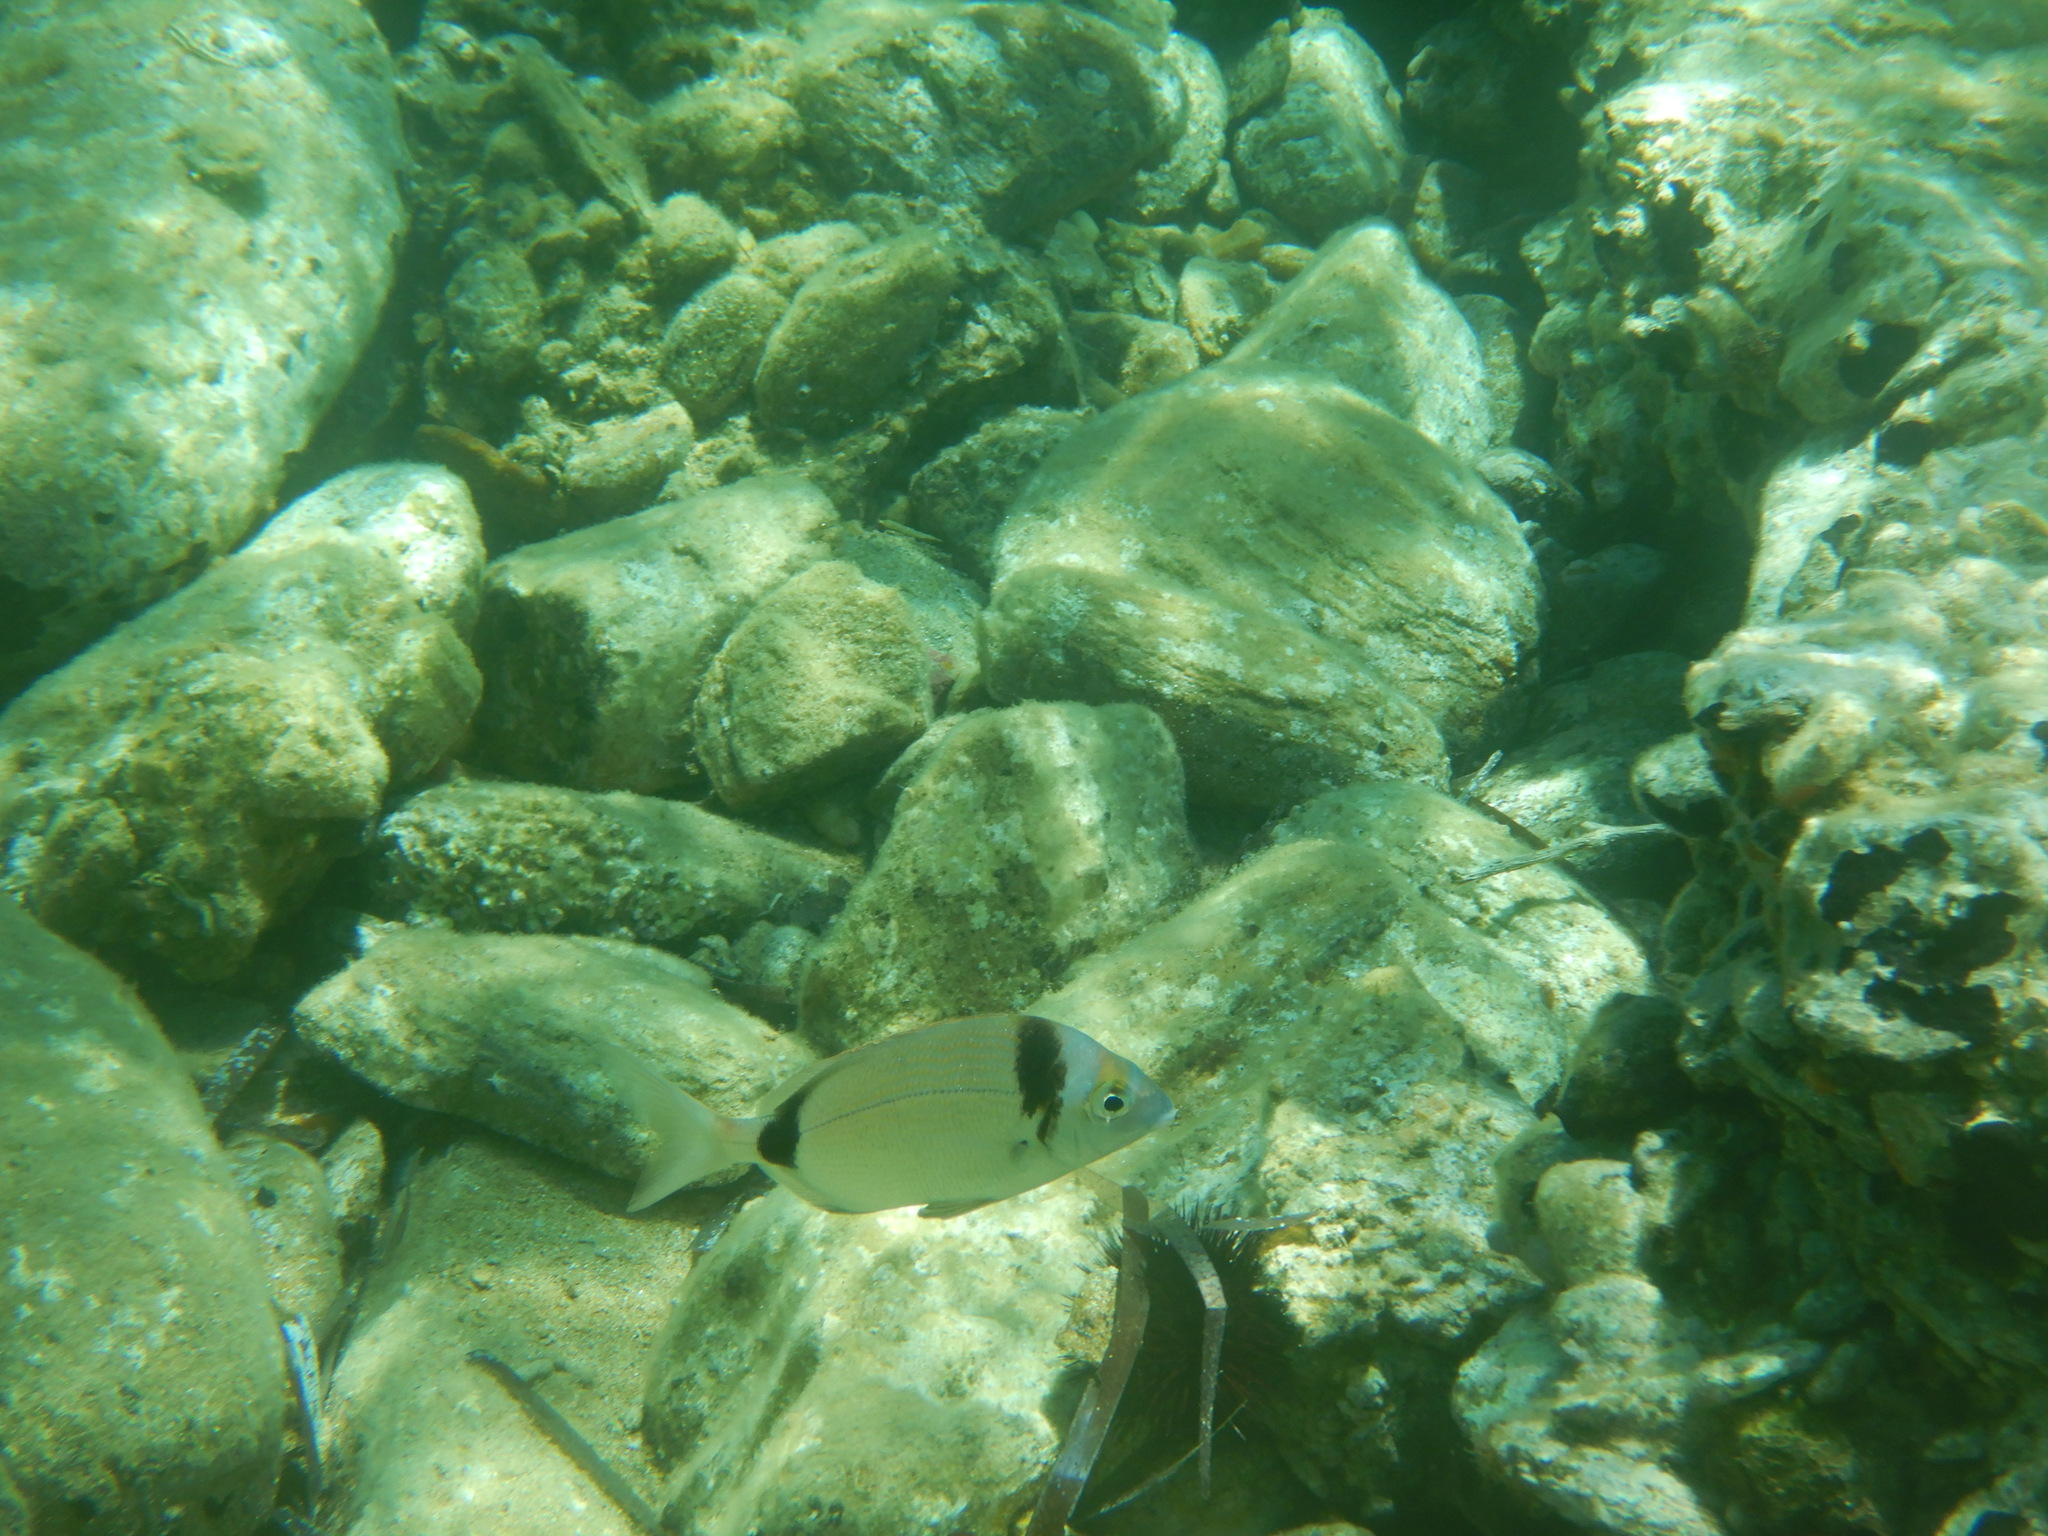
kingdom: Animalia
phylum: Chordata
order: Perciformes
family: Sparidae
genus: Diplodus
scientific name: Diplodus vulgaris
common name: Common two-banded seabream
